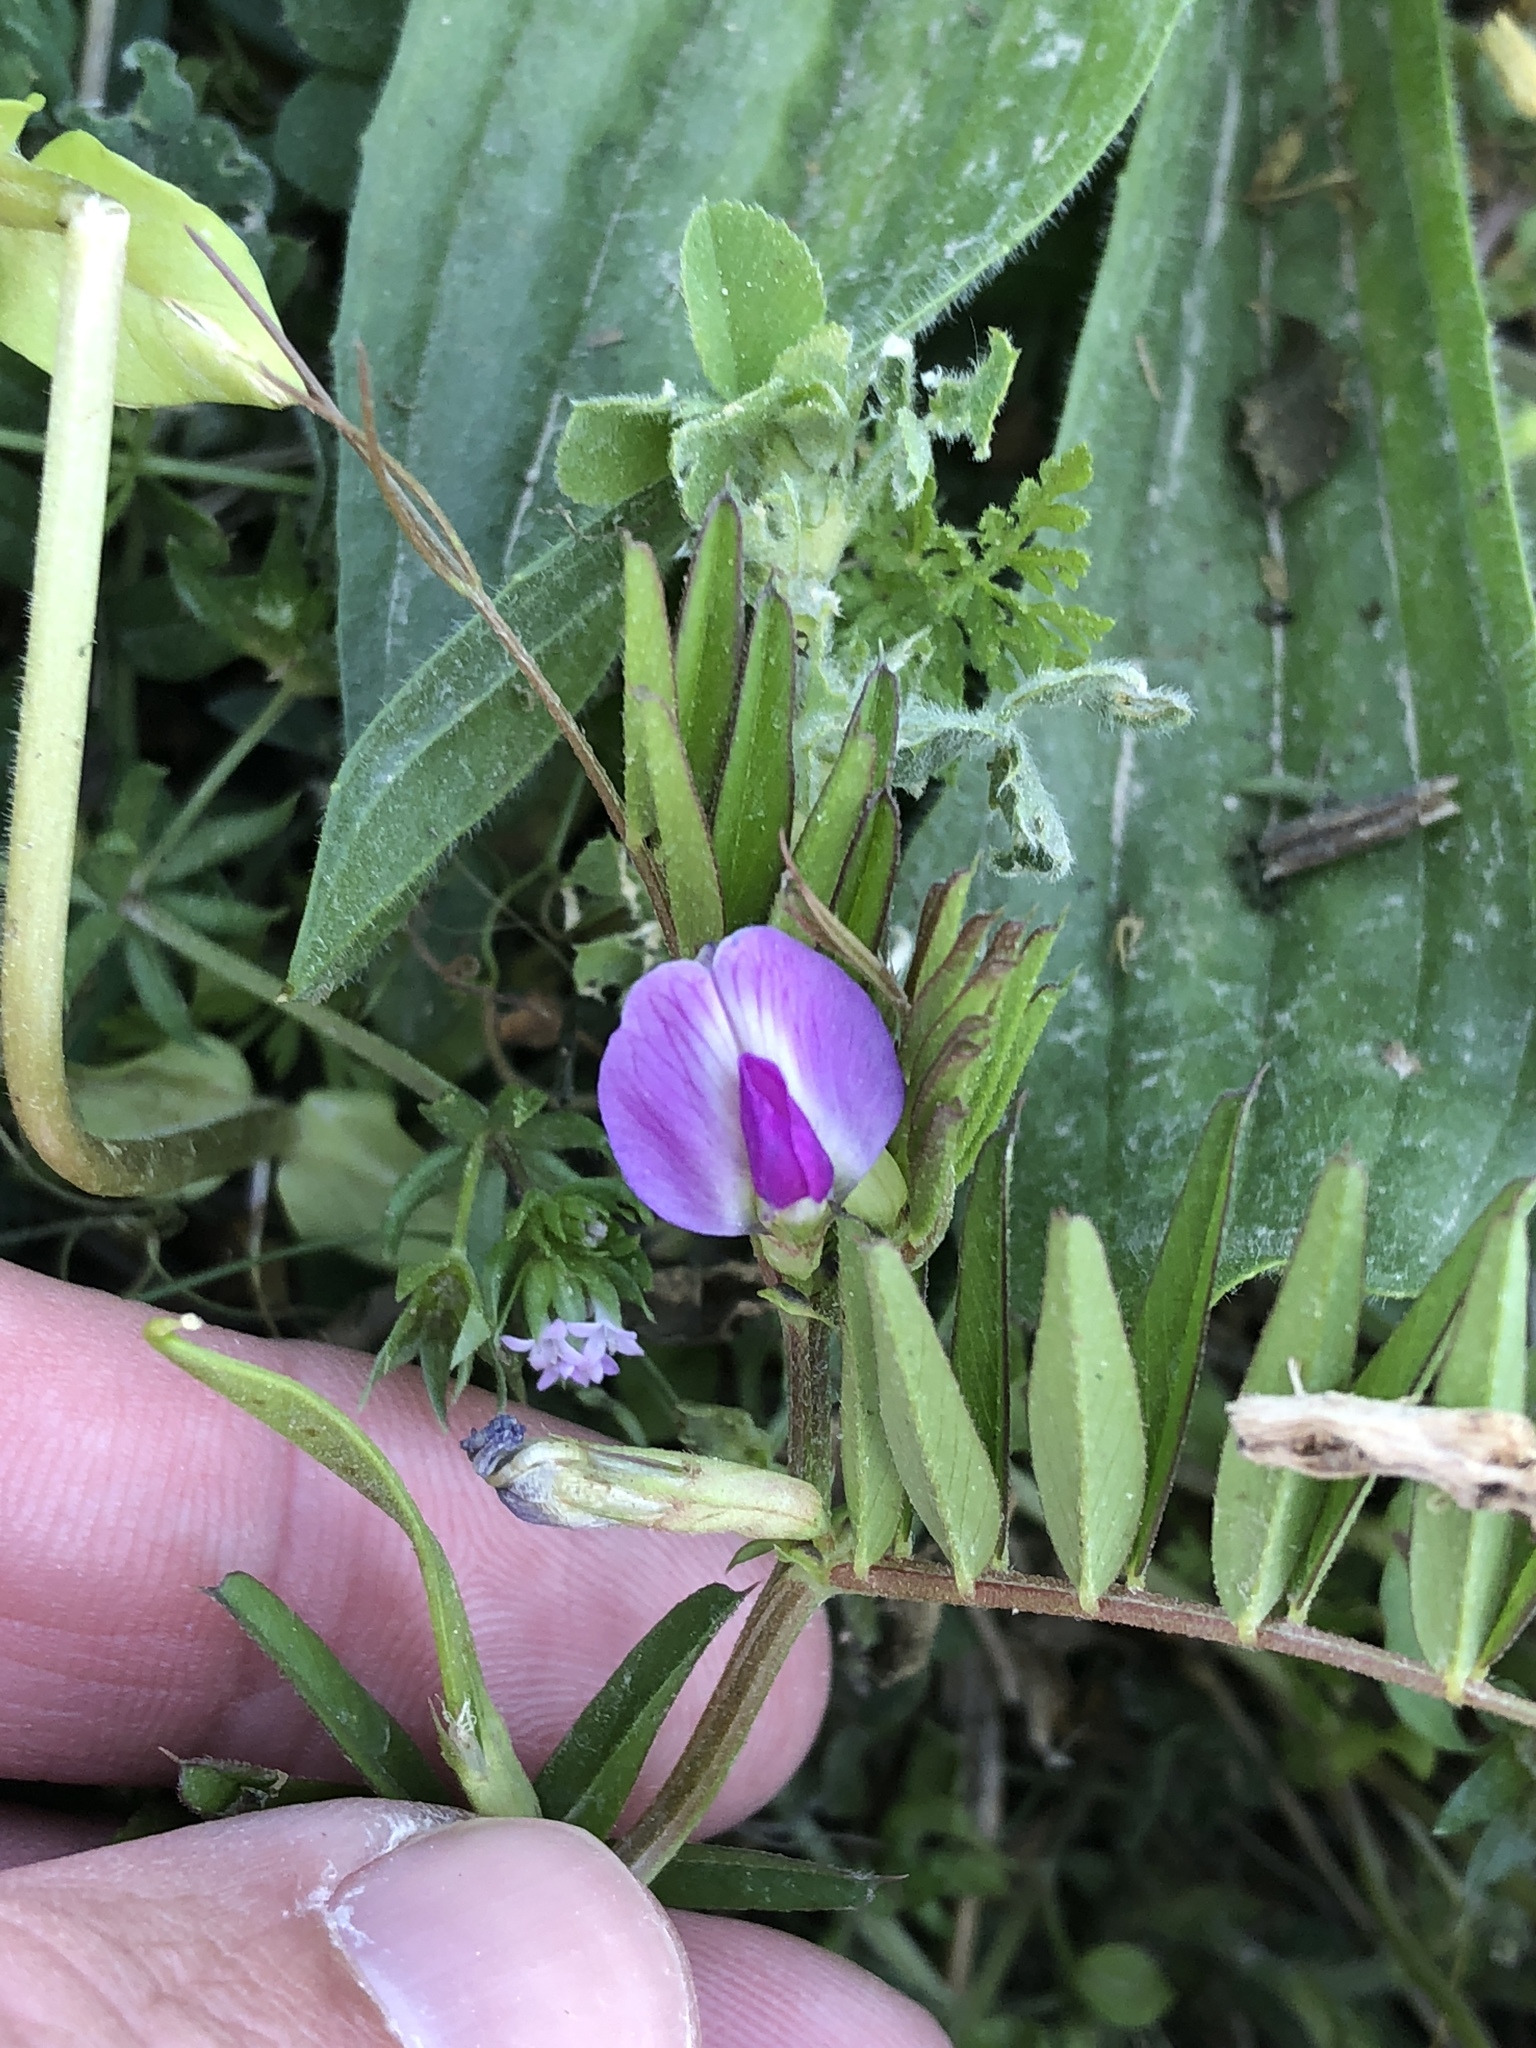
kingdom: Plantae
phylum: Tracheophyta
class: Magnoliopsida
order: Fabales
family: Fabaceae
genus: Vicia
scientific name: Vicia sativa
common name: Garden vetch
